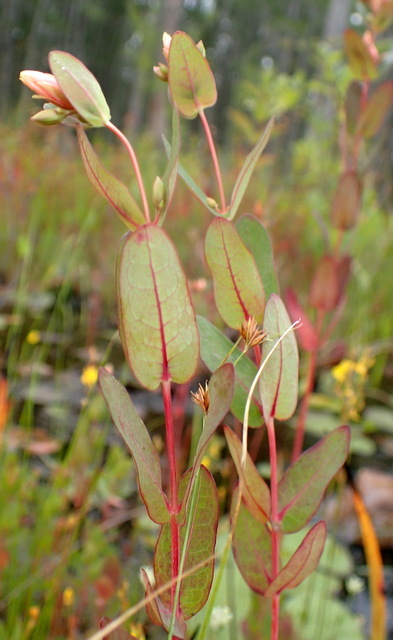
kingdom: Plantae
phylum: Tracheophyta
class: Magnoliopsida
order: Malpighiales
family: Hypericaceae
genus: Triadenum
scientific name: Triadenum virginicum
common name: Marsh st. john's-wort
